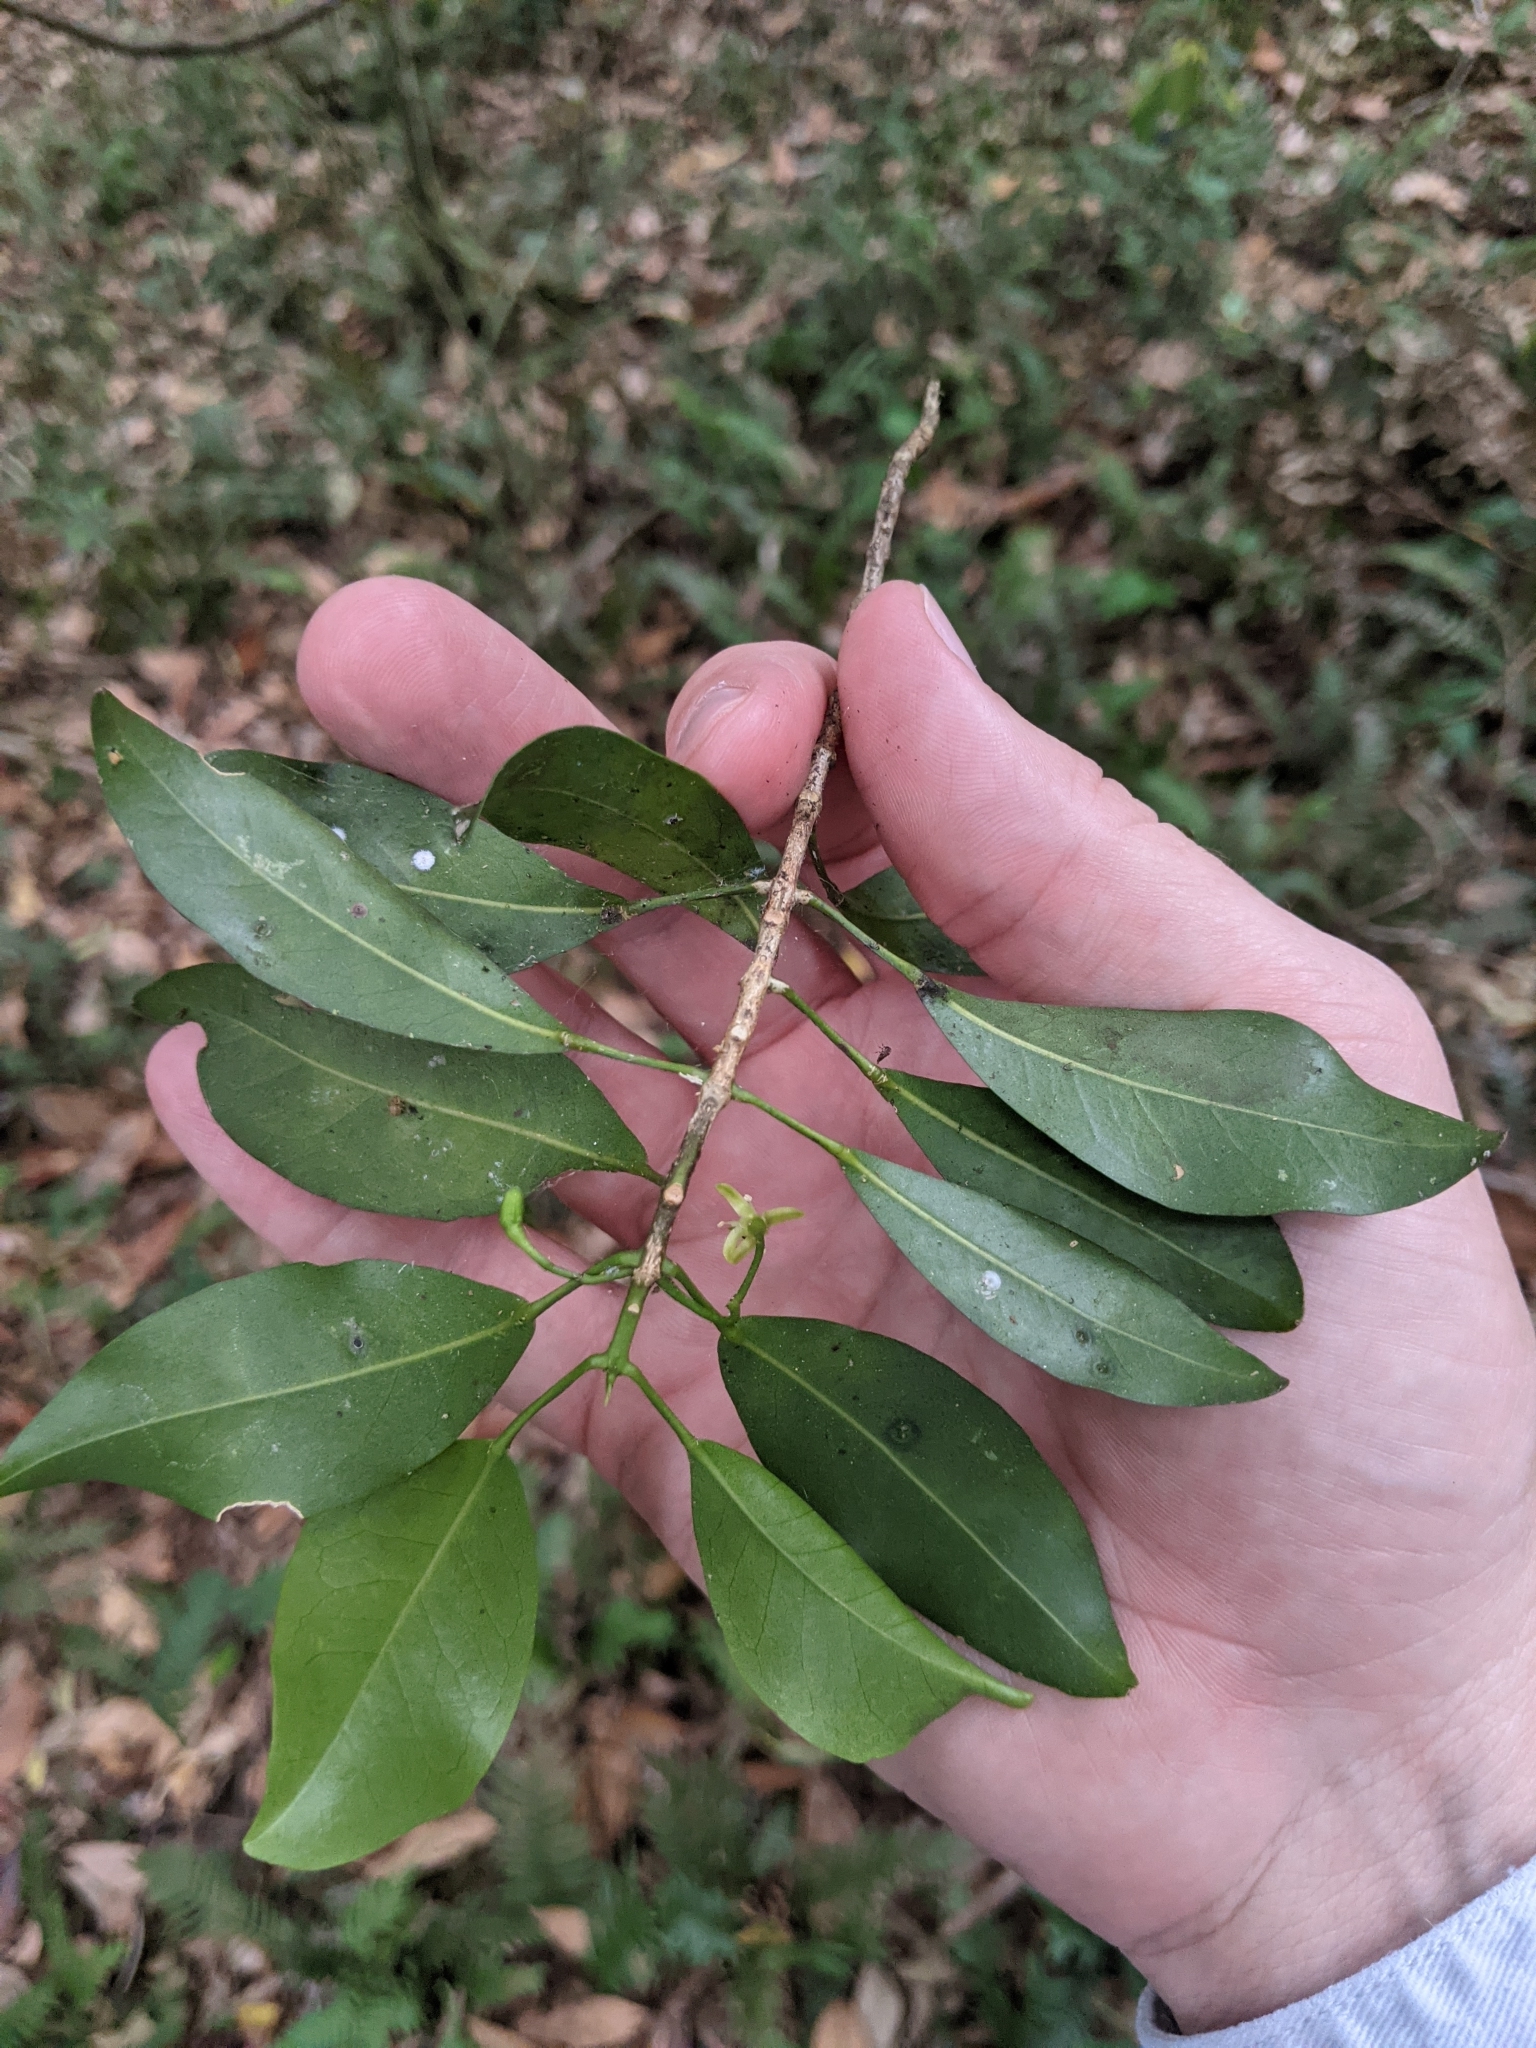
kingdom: Plantae
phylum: Tracheophyta
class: Magnoliopsida
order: Sapindales
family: Rutaceae
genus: Acronychia
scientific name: Acronychia laevis
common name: Hard aspen
